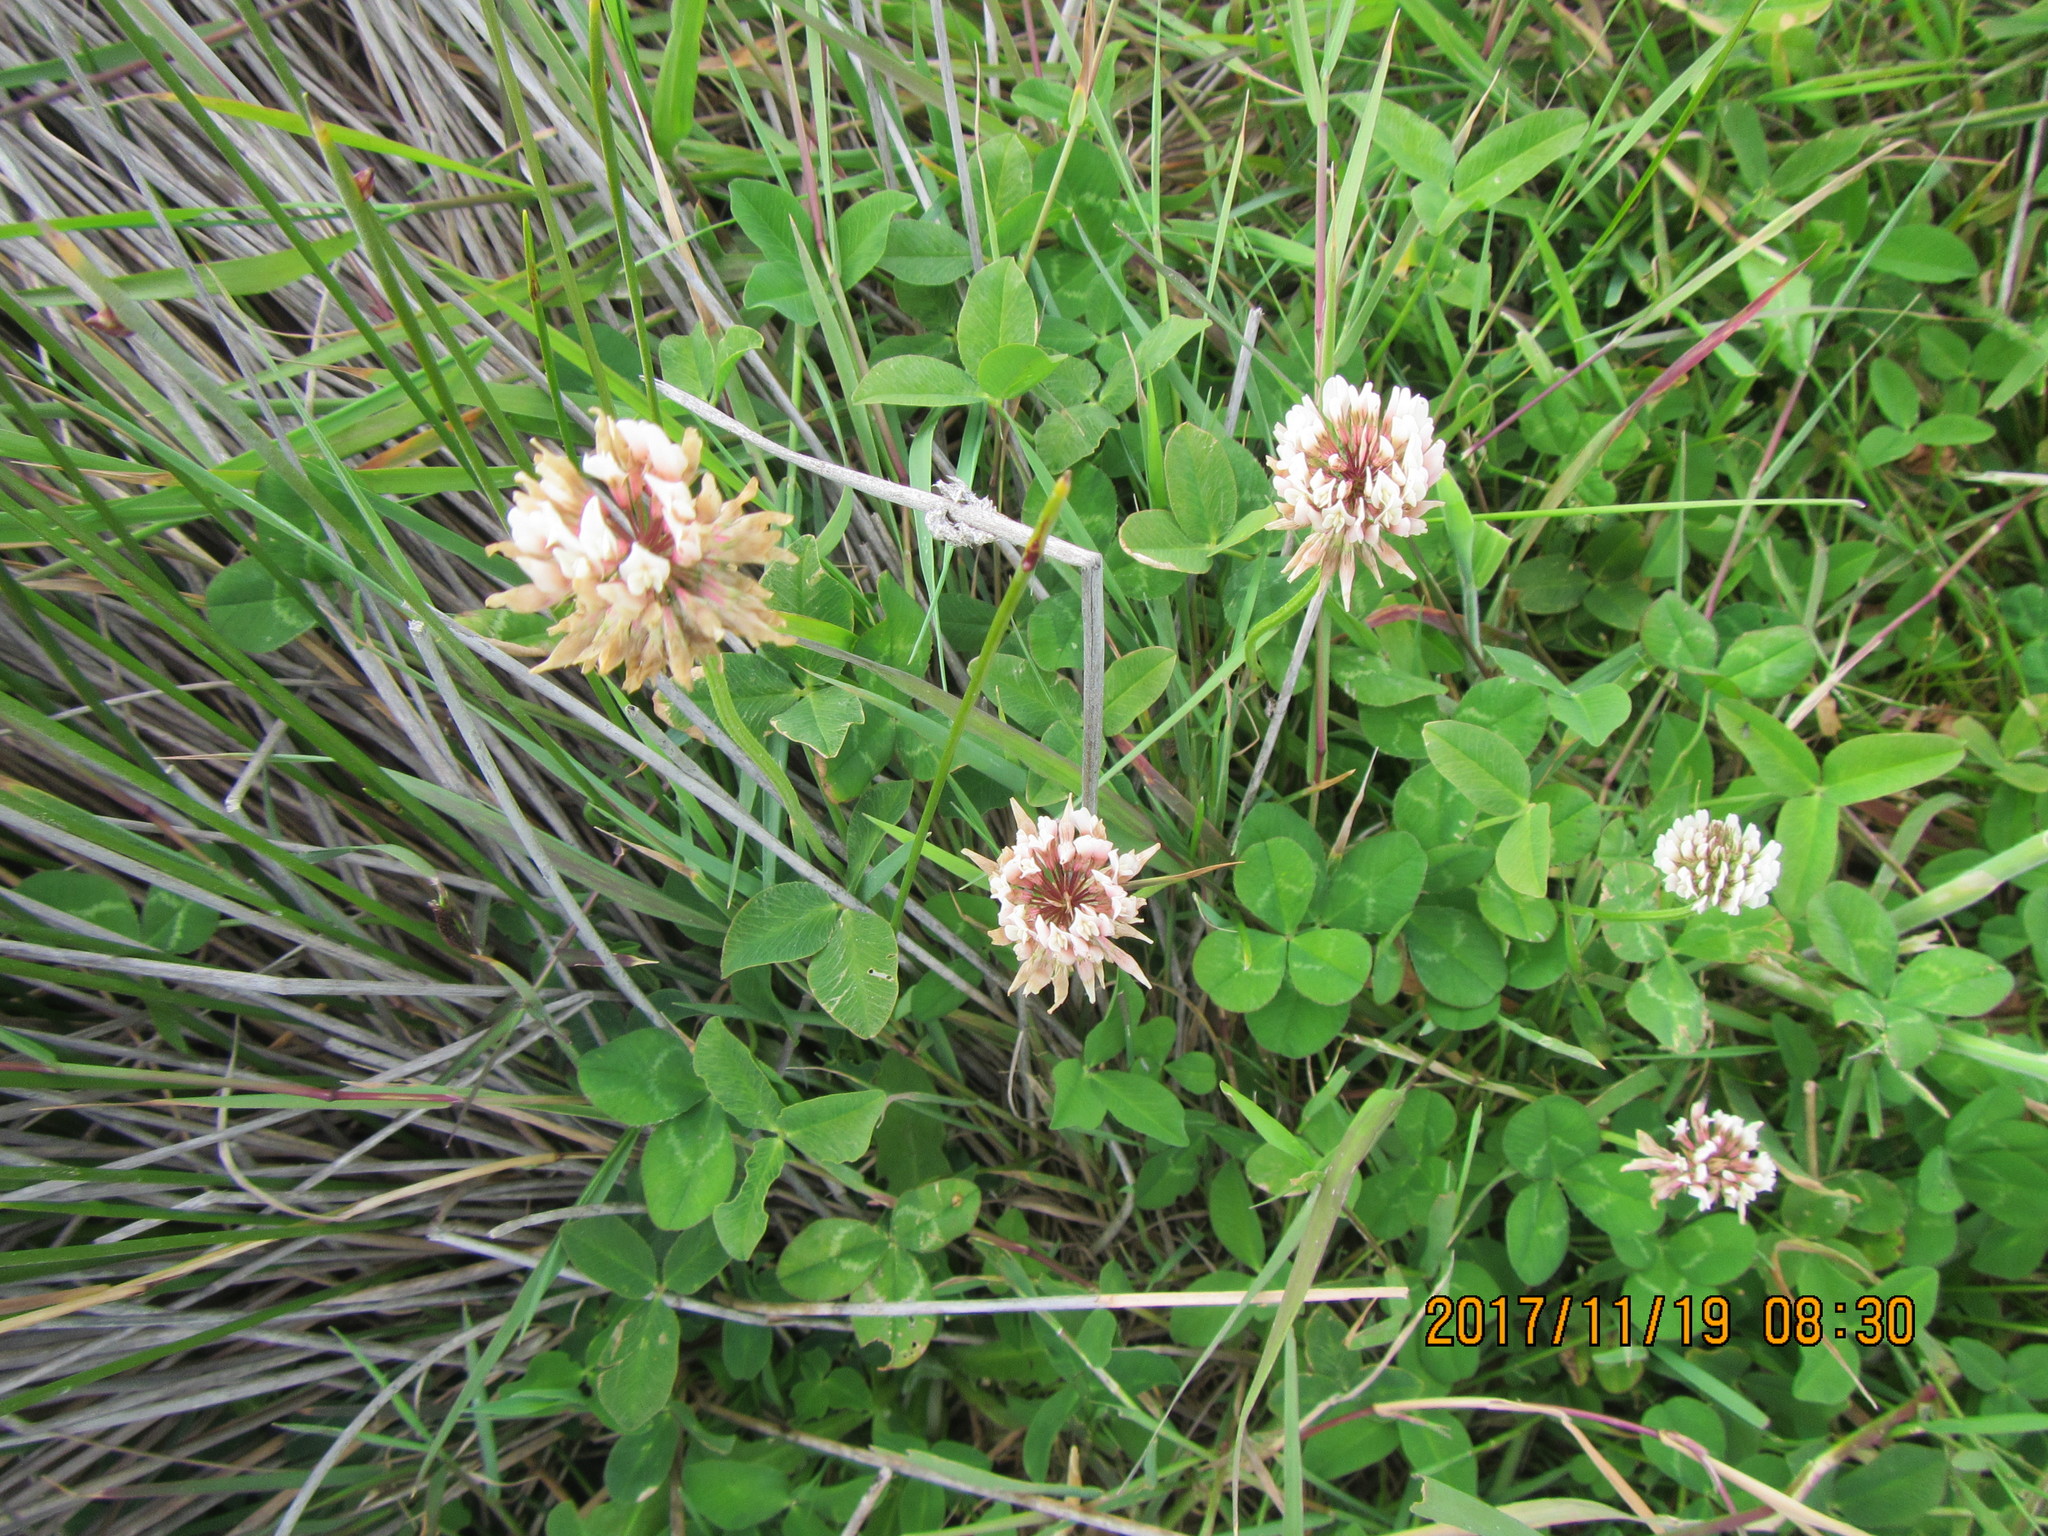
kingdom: Plantae
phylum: Tracheophyta
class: Magnoliopsida
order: Fabales
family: Fabaceae
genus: Trifolium
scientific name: Trifolium repens
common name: White clover
